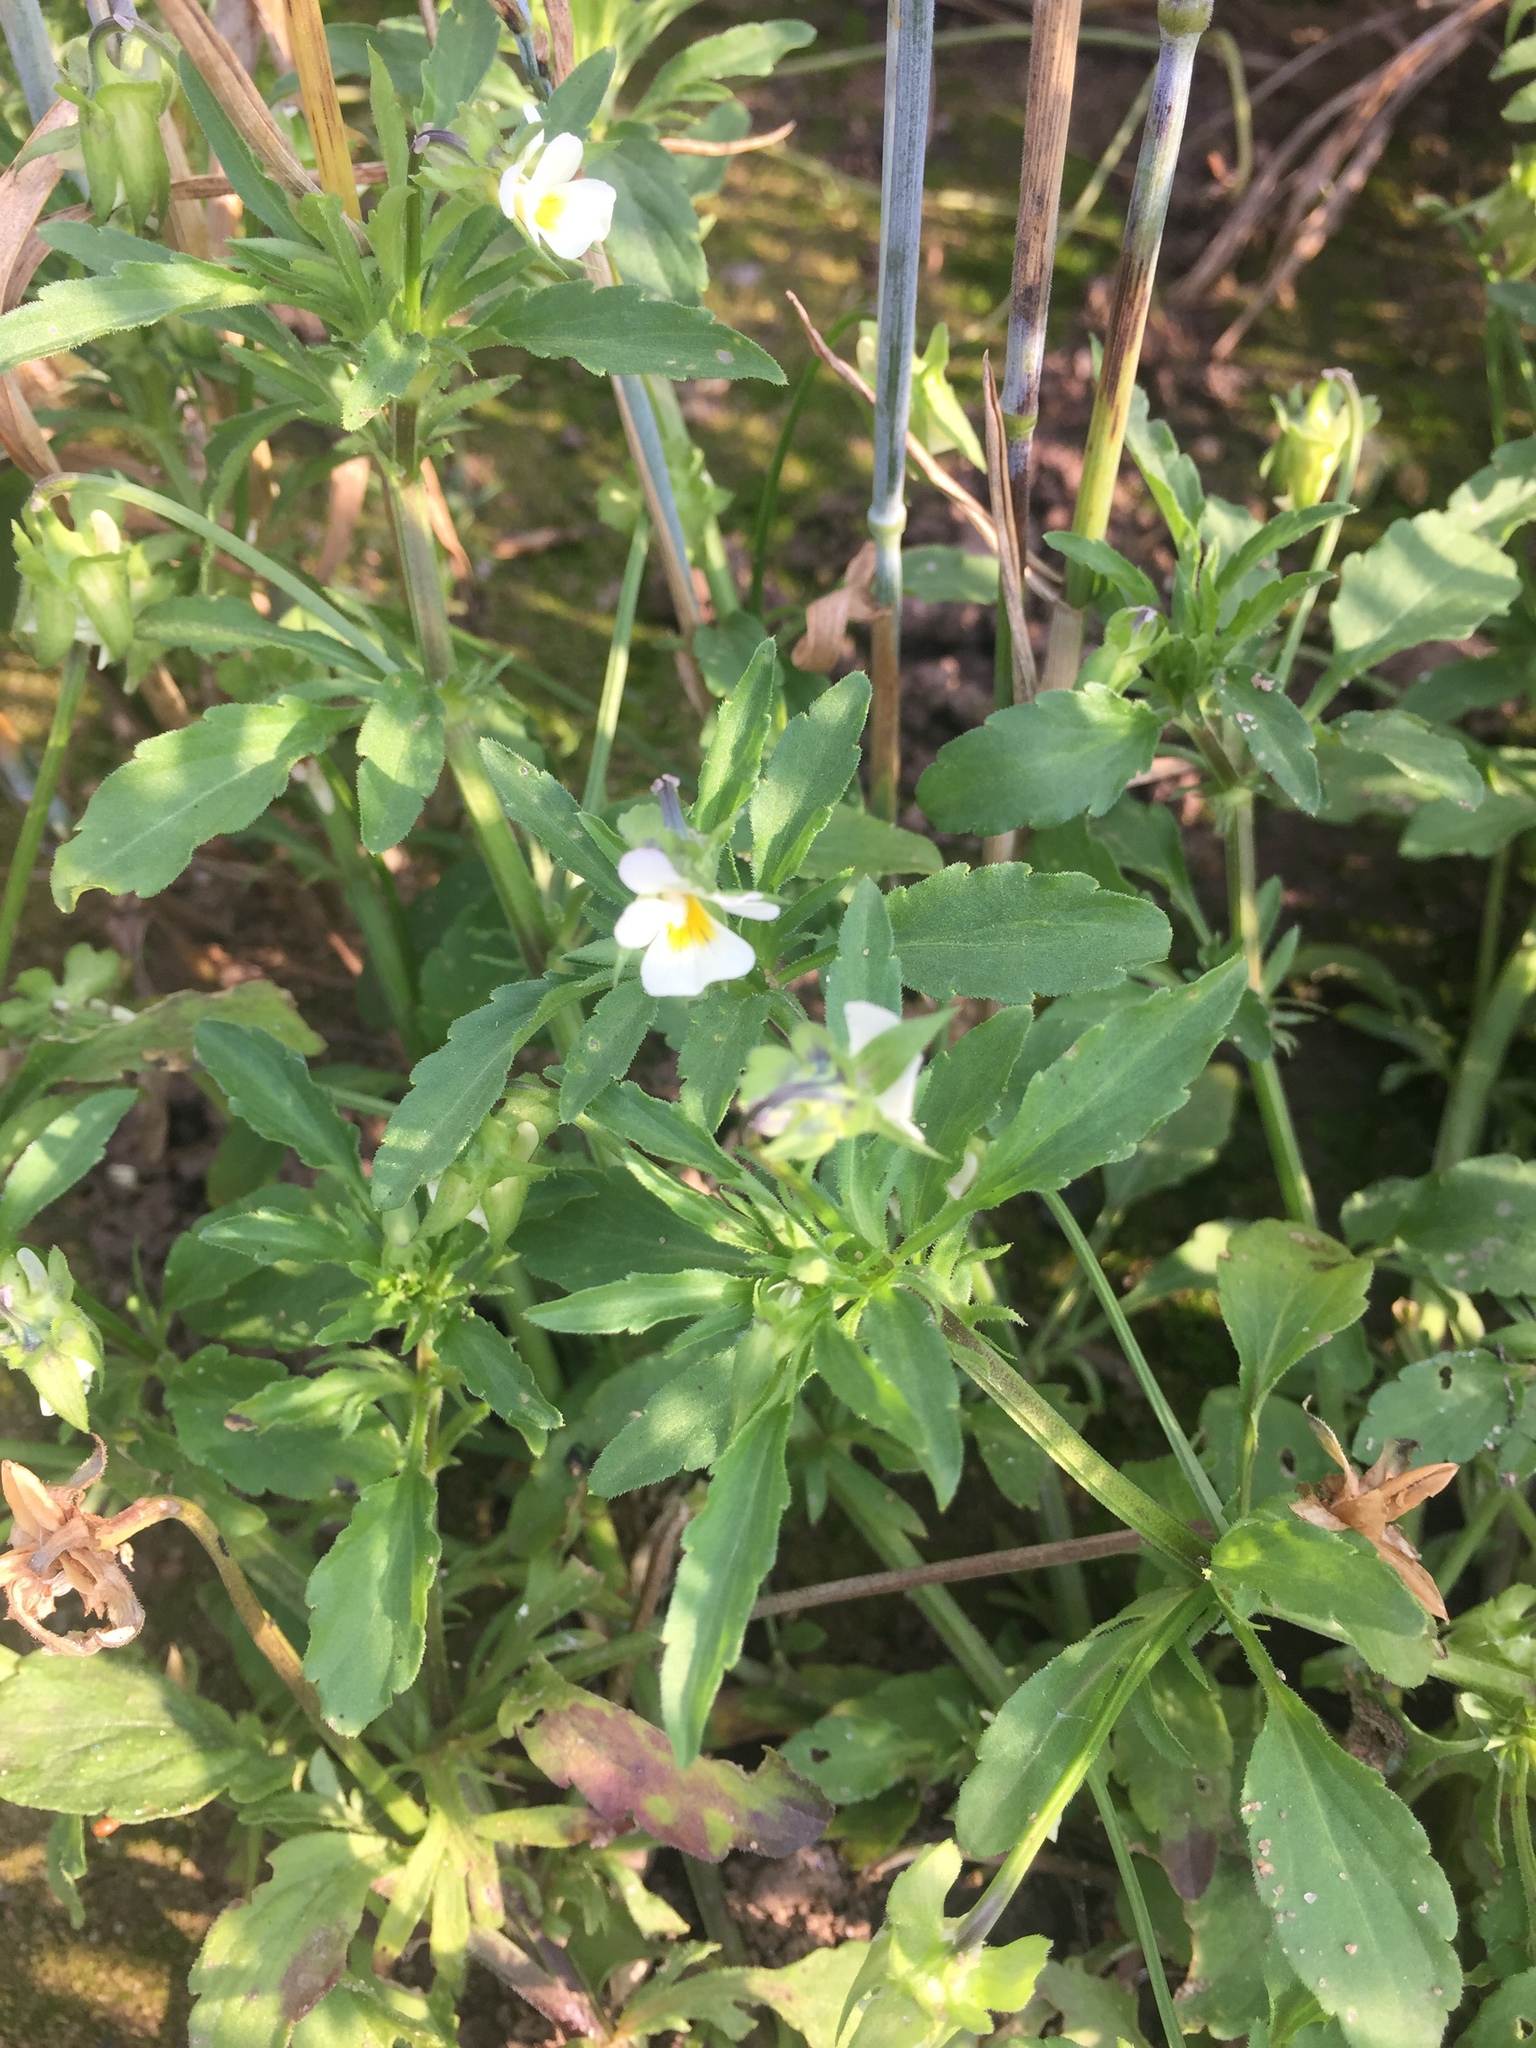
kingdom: Plantae
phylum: Tracheophyta
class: Magnoliopsida
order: Malpighiales
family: Violaceae
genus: Viola
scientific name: Viola arvensis
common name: Field pansy
